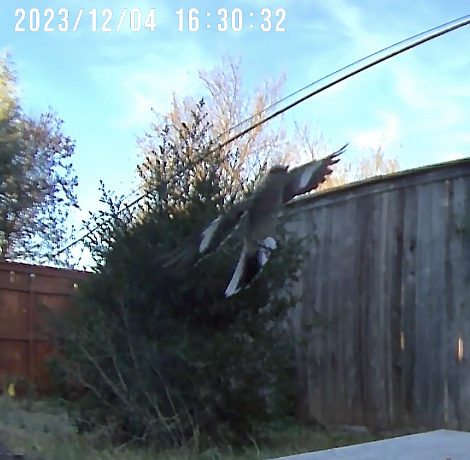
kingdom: Animalia
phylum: Chordata
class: Aves
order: Passeriformes
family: Mimidae
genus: Mimus
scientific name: Mimus polyglottos
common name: Northern mockingbird
